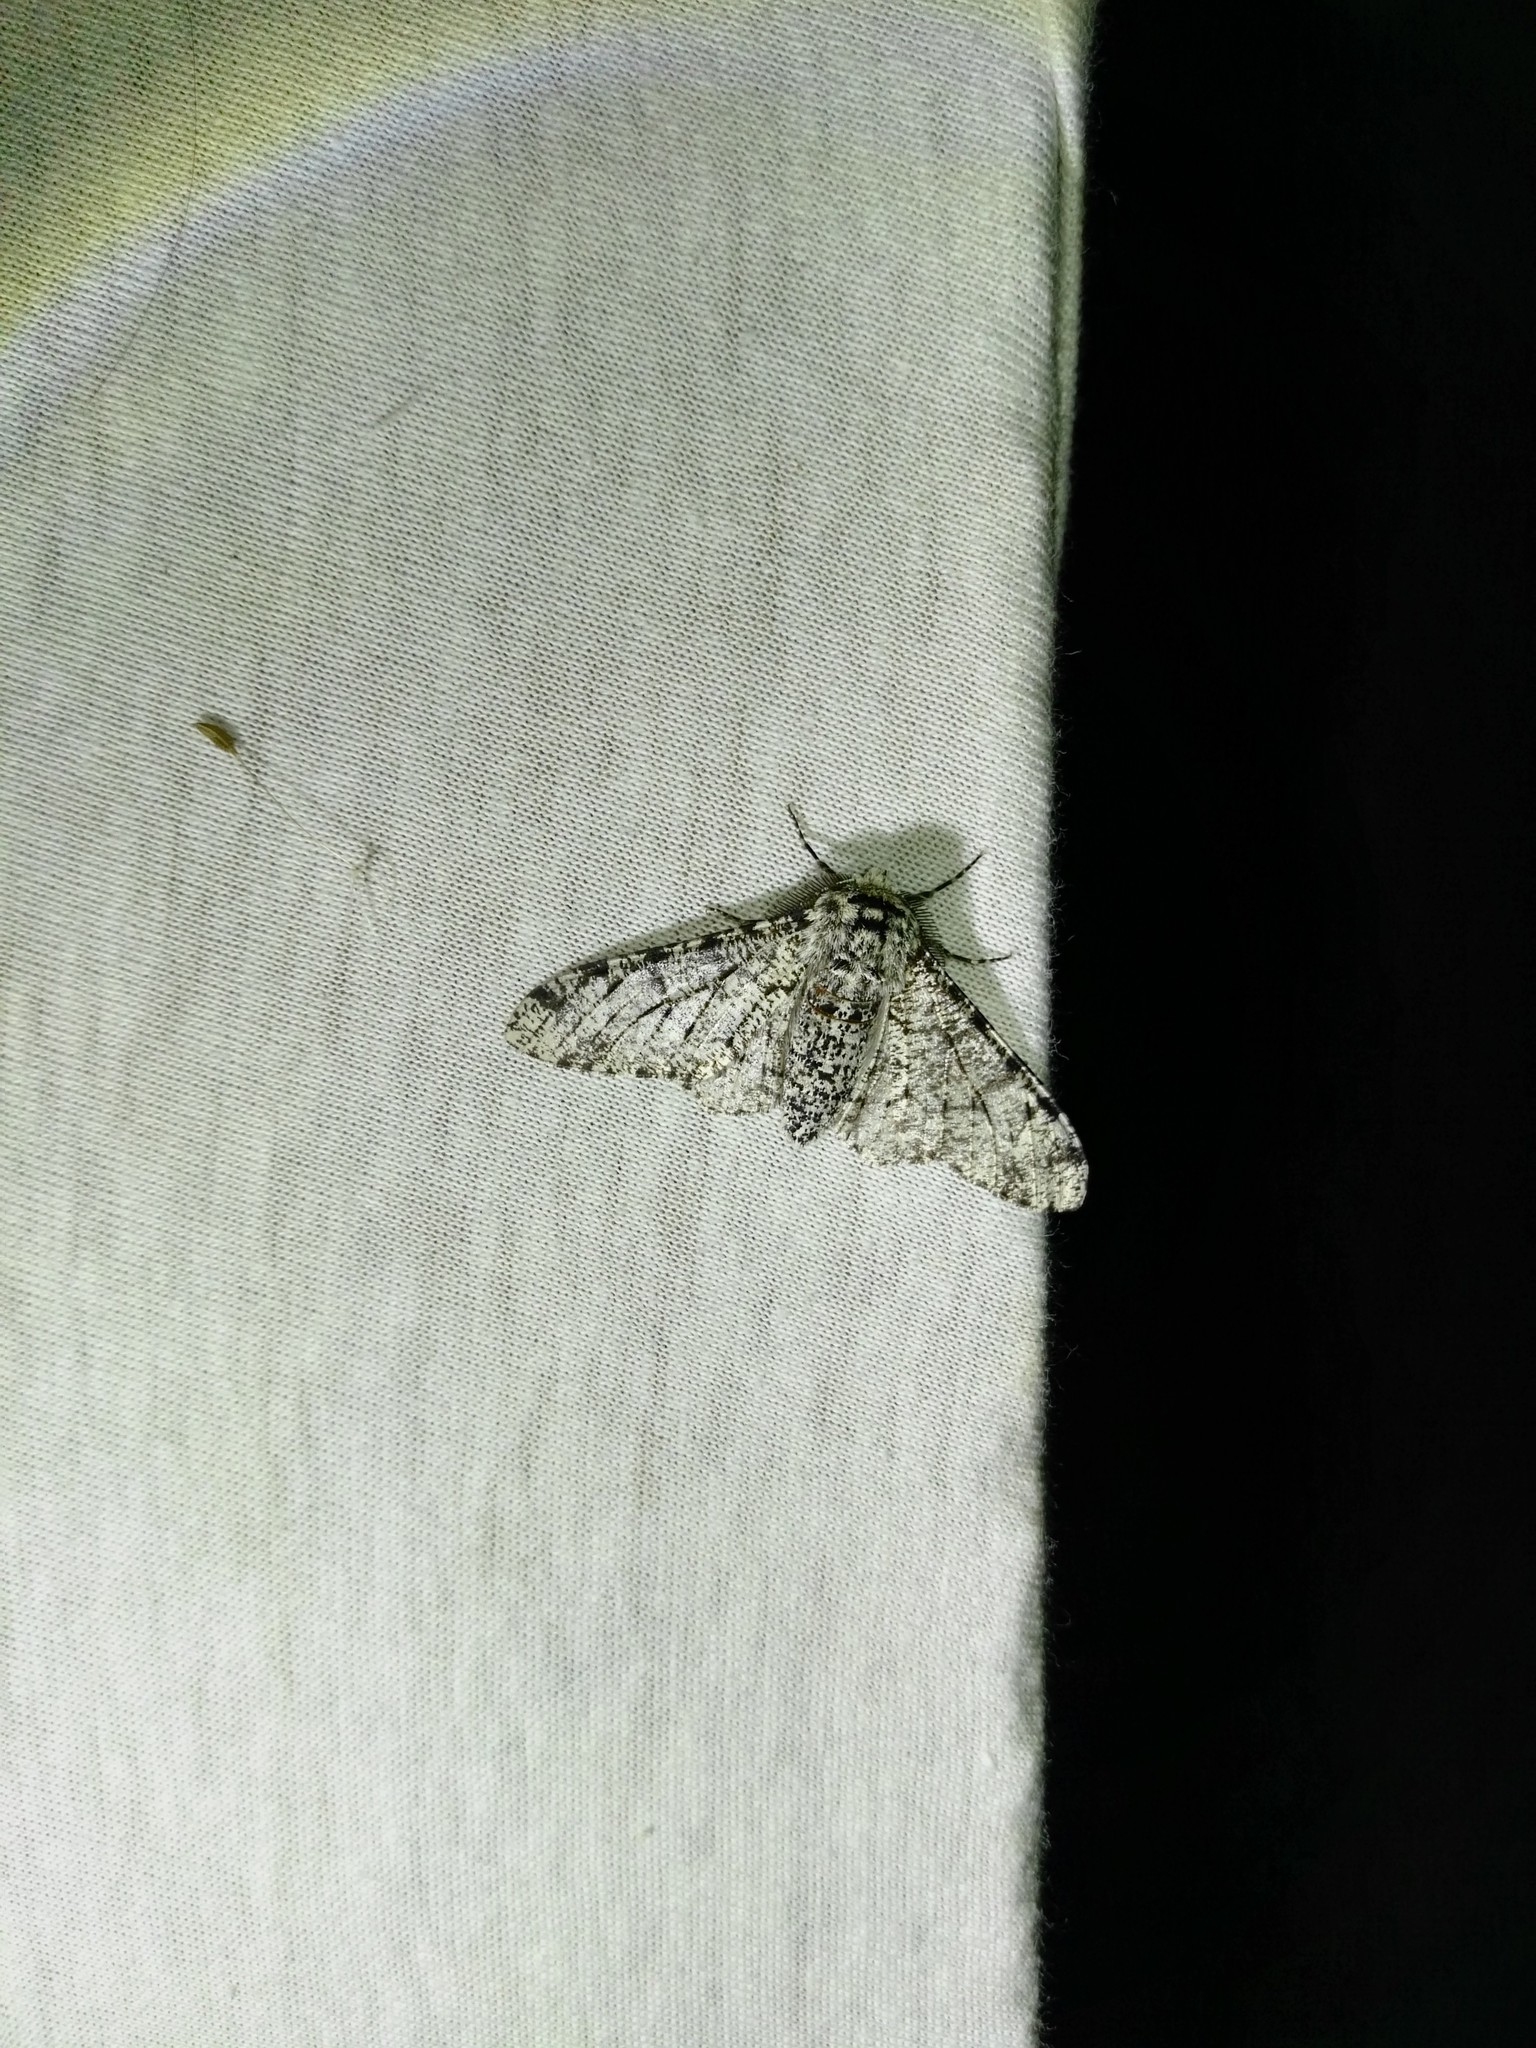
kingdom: Animalia
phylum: Arthropoda
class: Insecta
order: Lepidoptera
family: Geometridae
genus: Biston
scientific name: Biston betularia
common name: Peppered moth
